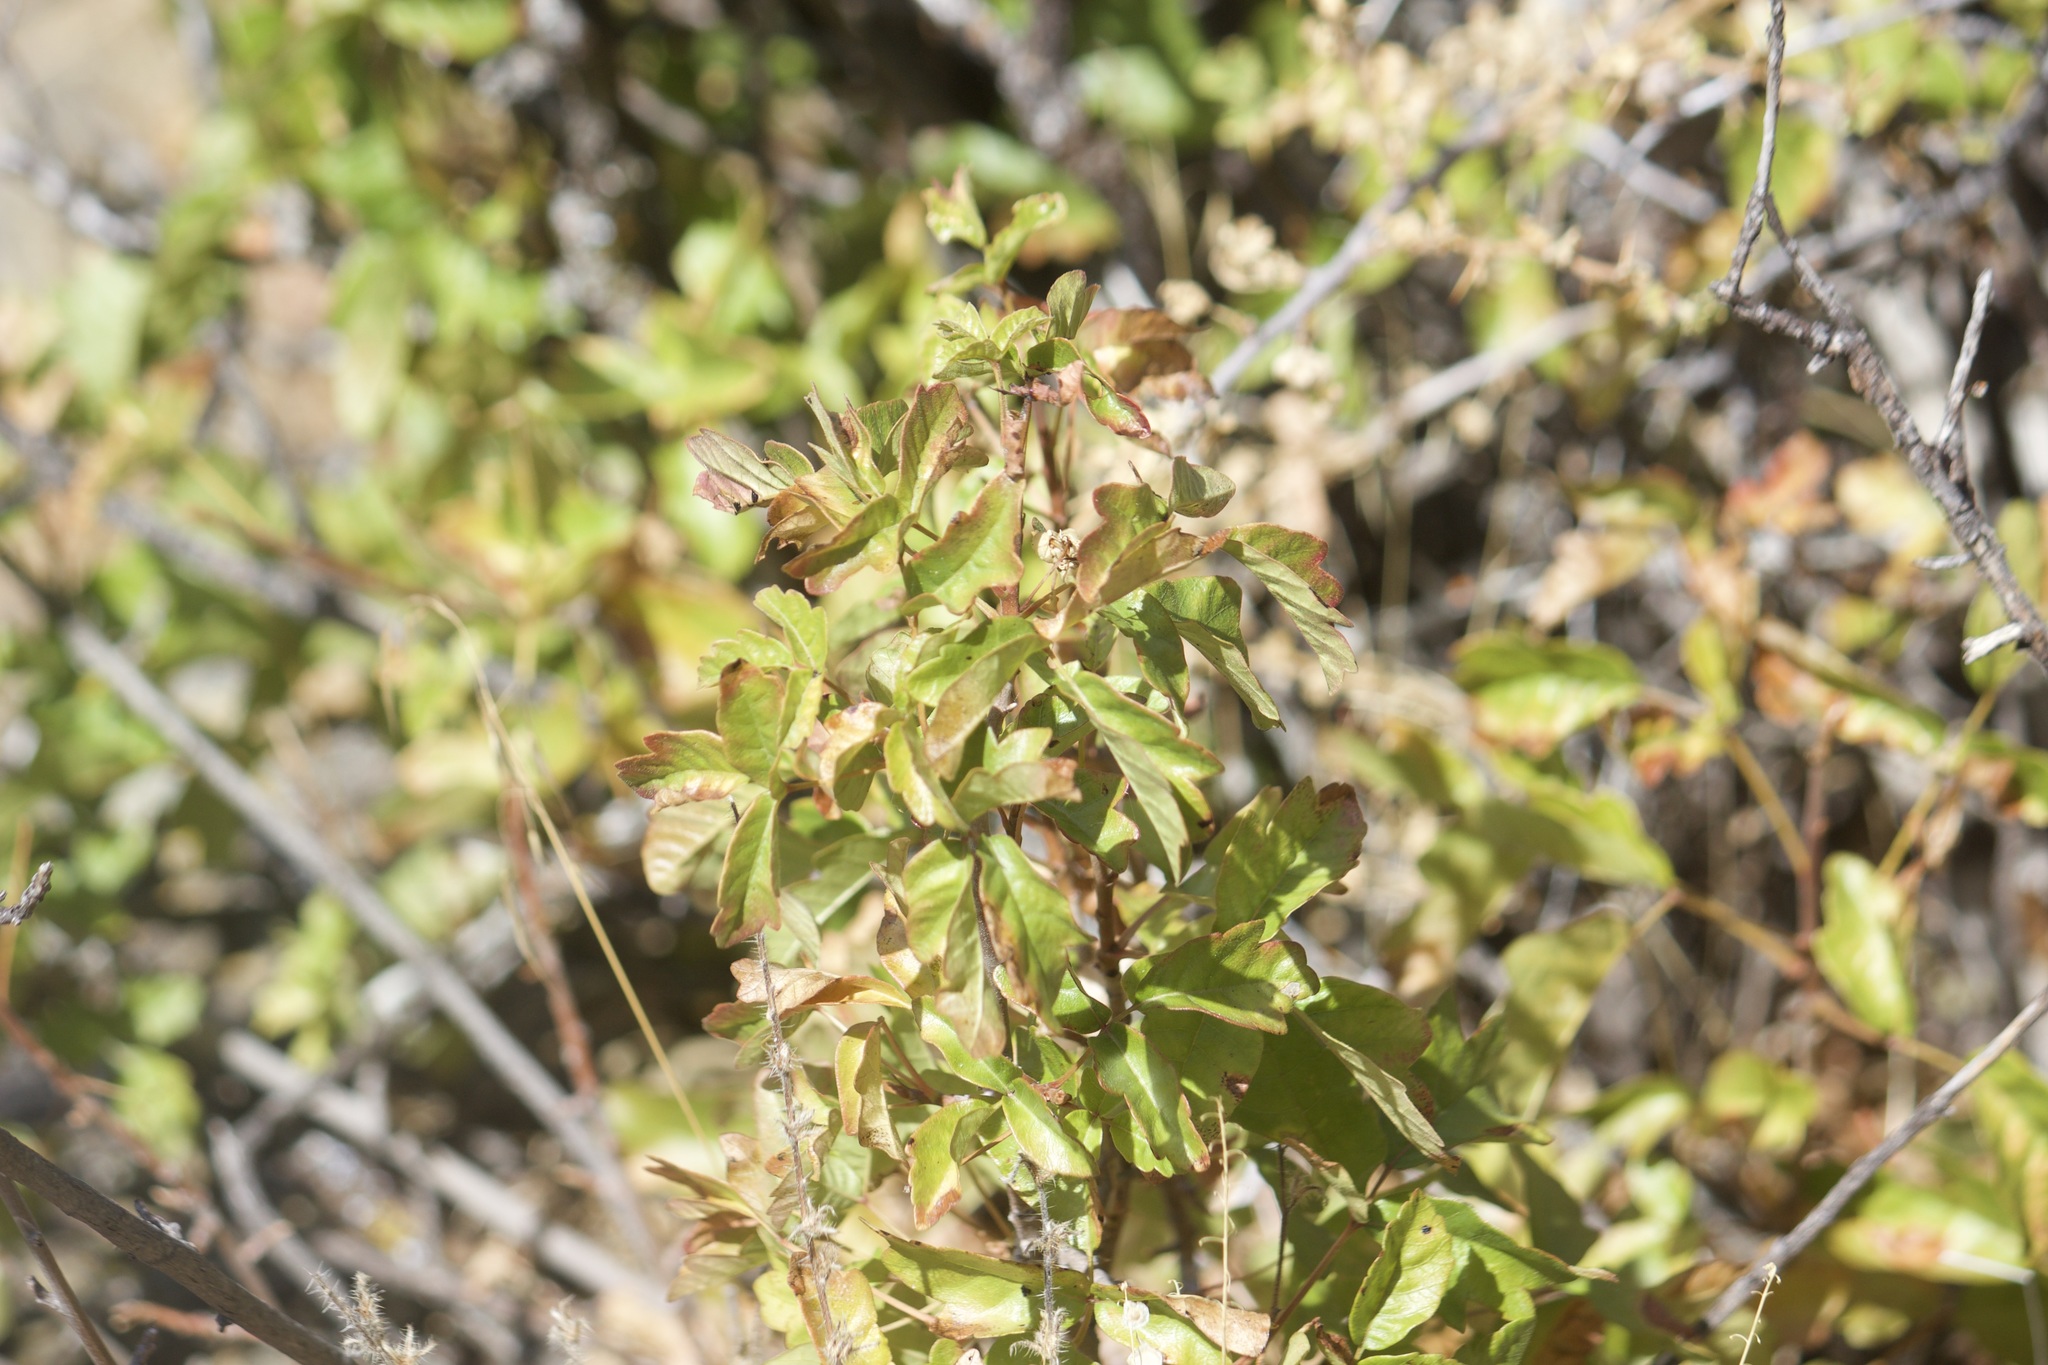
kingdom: Plantae
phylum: Tracheophyta
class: Magnoliopsida
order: Sapindales
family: Anacardiaceae
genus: Toxicodendron
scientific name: Toxicodendron diversilobum
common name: Pacific poison-oak
